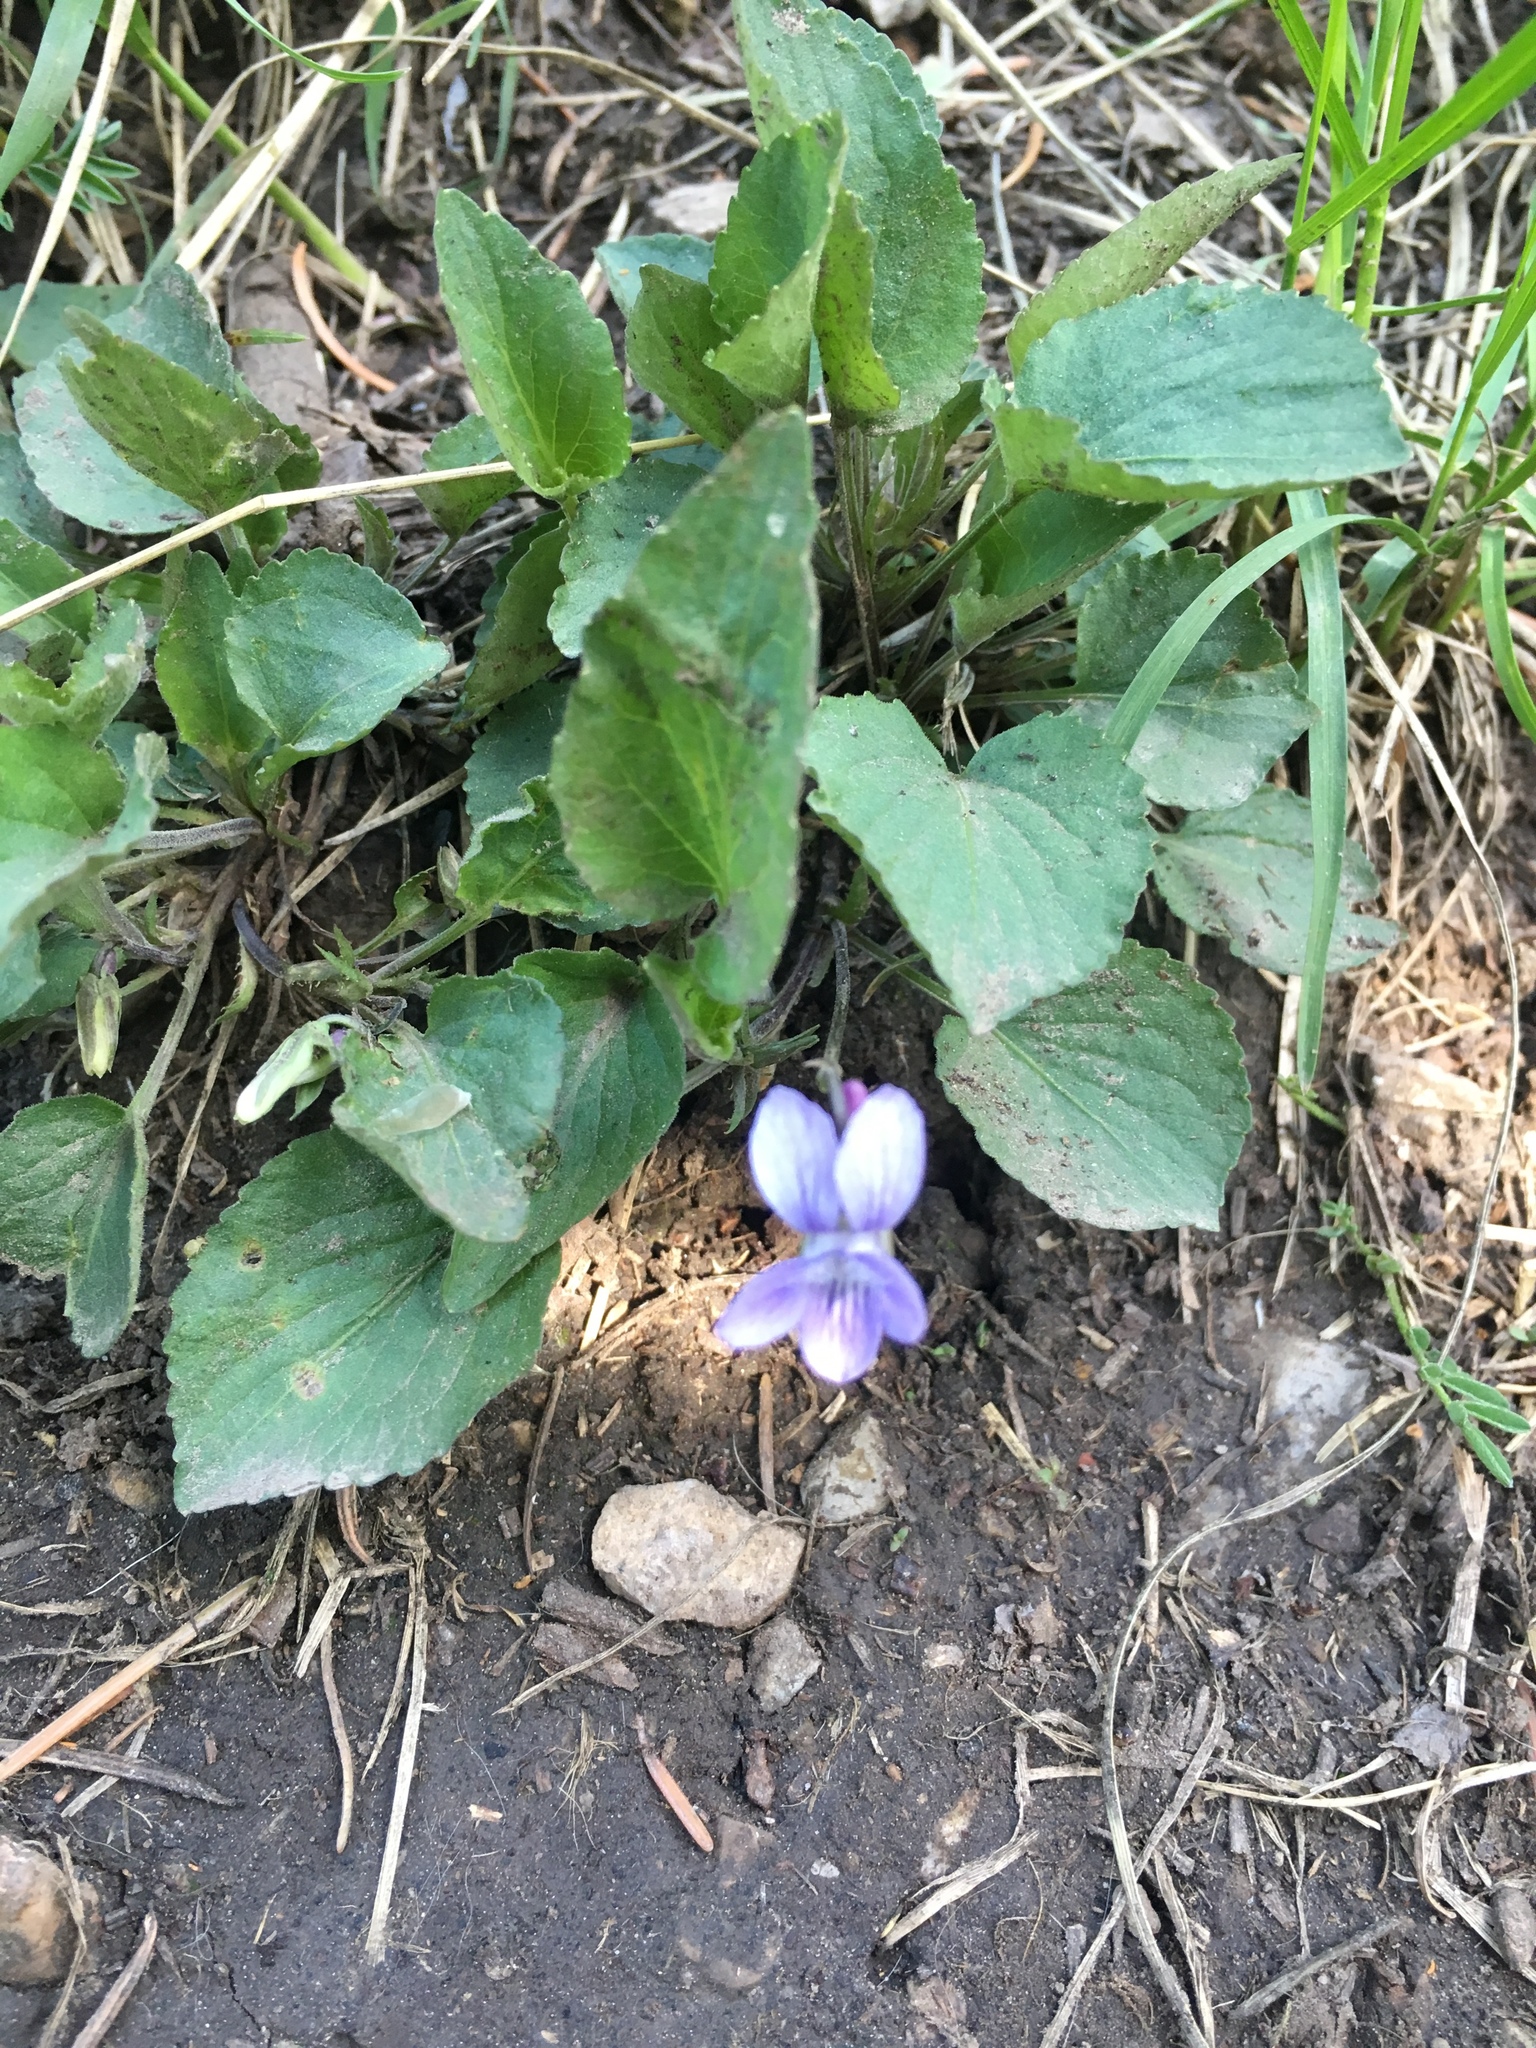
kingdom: Plantae
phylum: Tracheophyta
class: Magnoliopsida
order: Malpighiales
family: Violaceae
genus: Viola
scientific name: Viola adunca
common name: Sand violet
